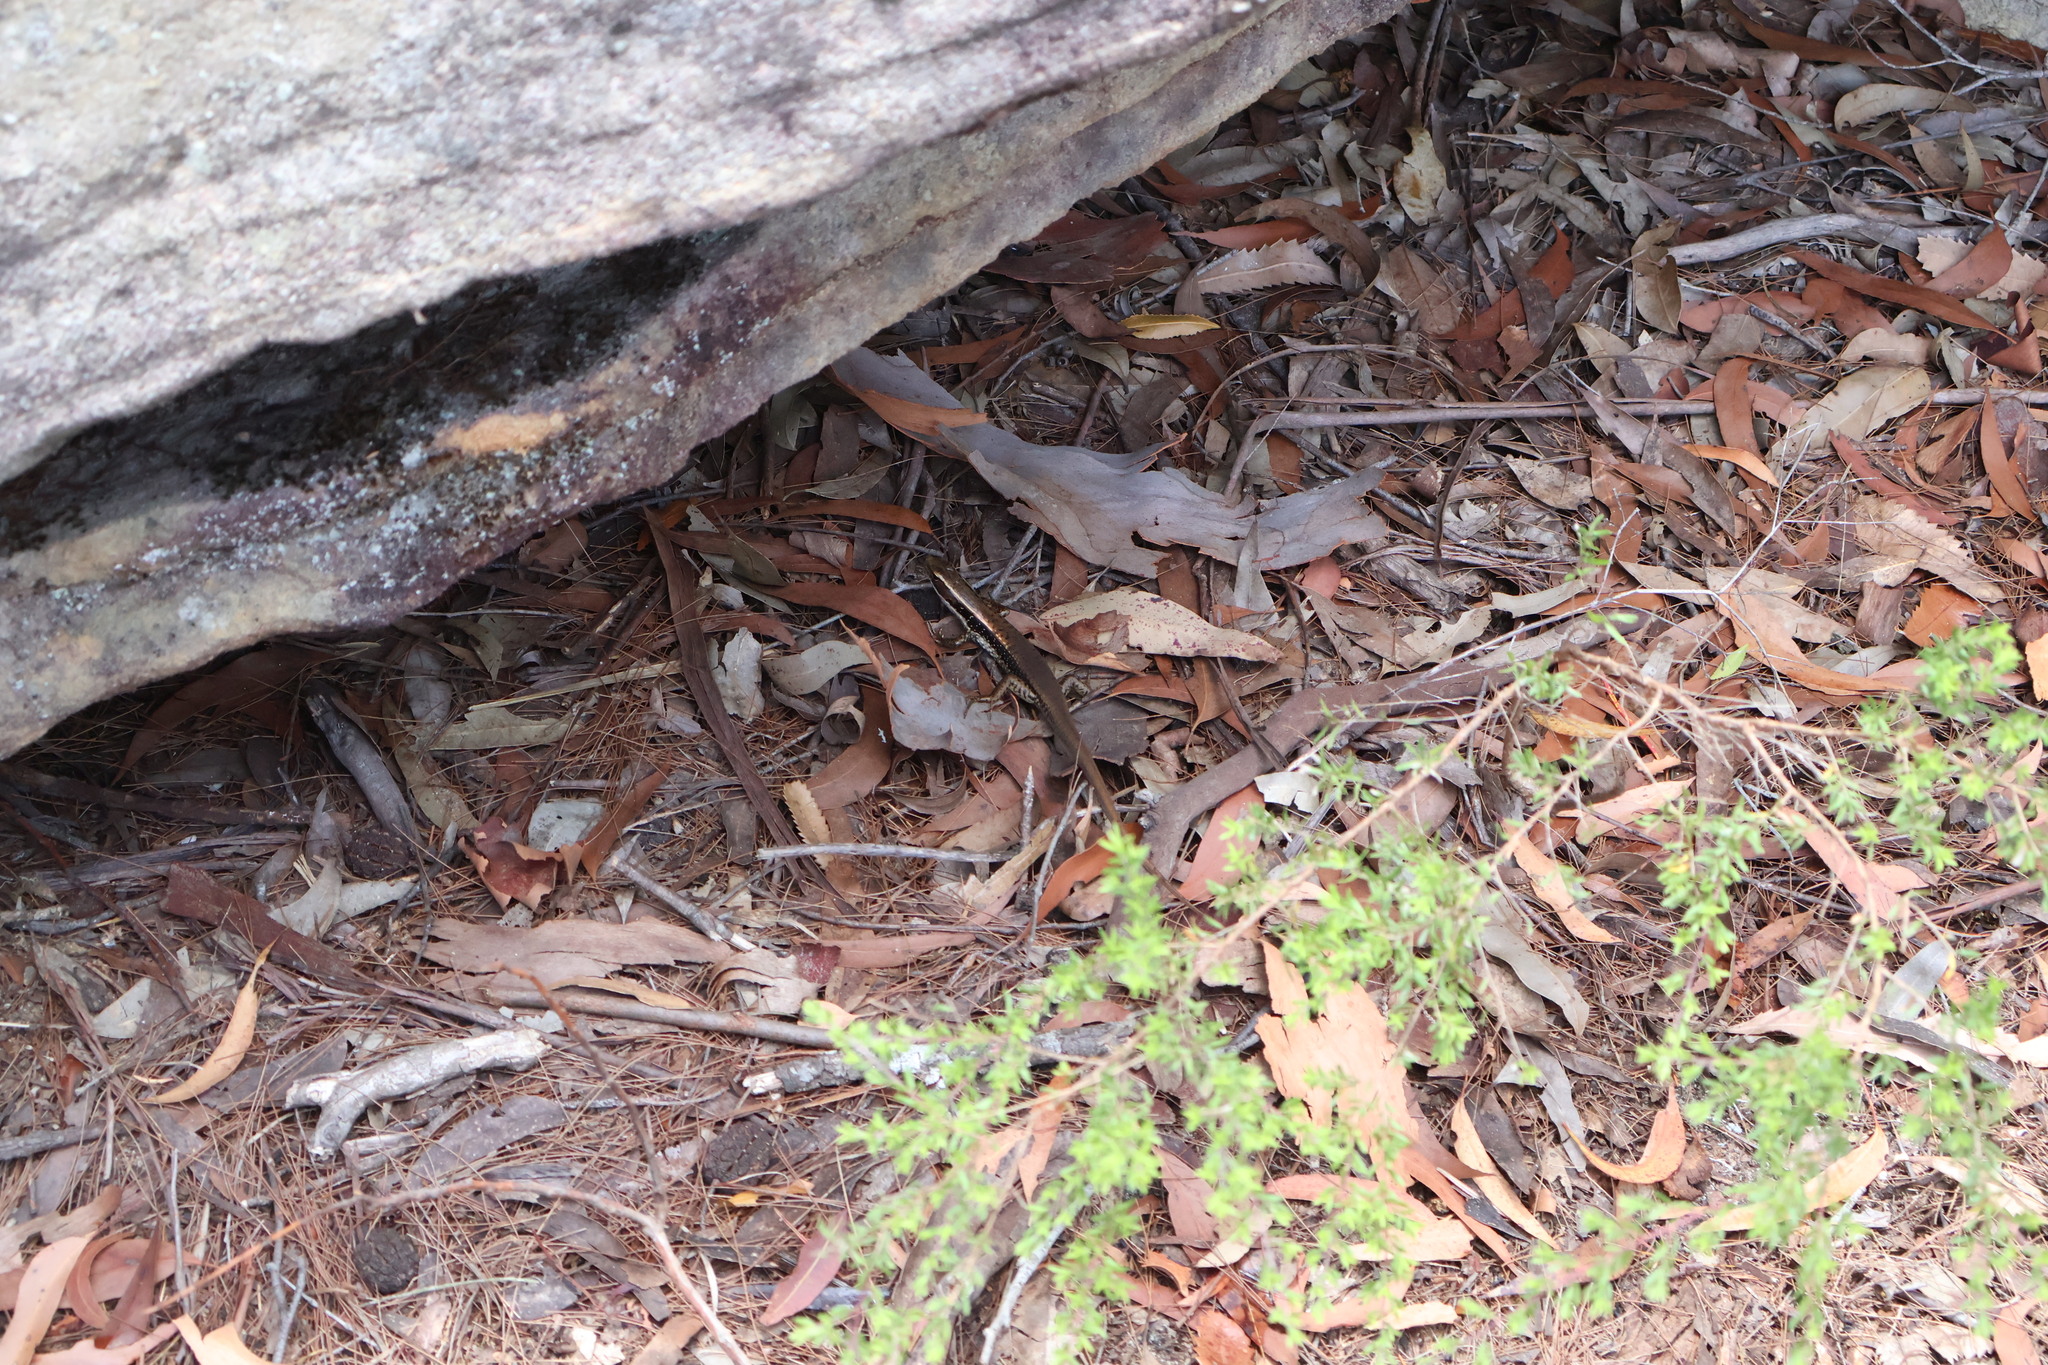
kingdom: Animalia
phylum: Chordata
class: Squamata
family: Scincidae
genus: Eulamprus
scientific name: Eulamprus quoyii
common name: Eastern water skink
